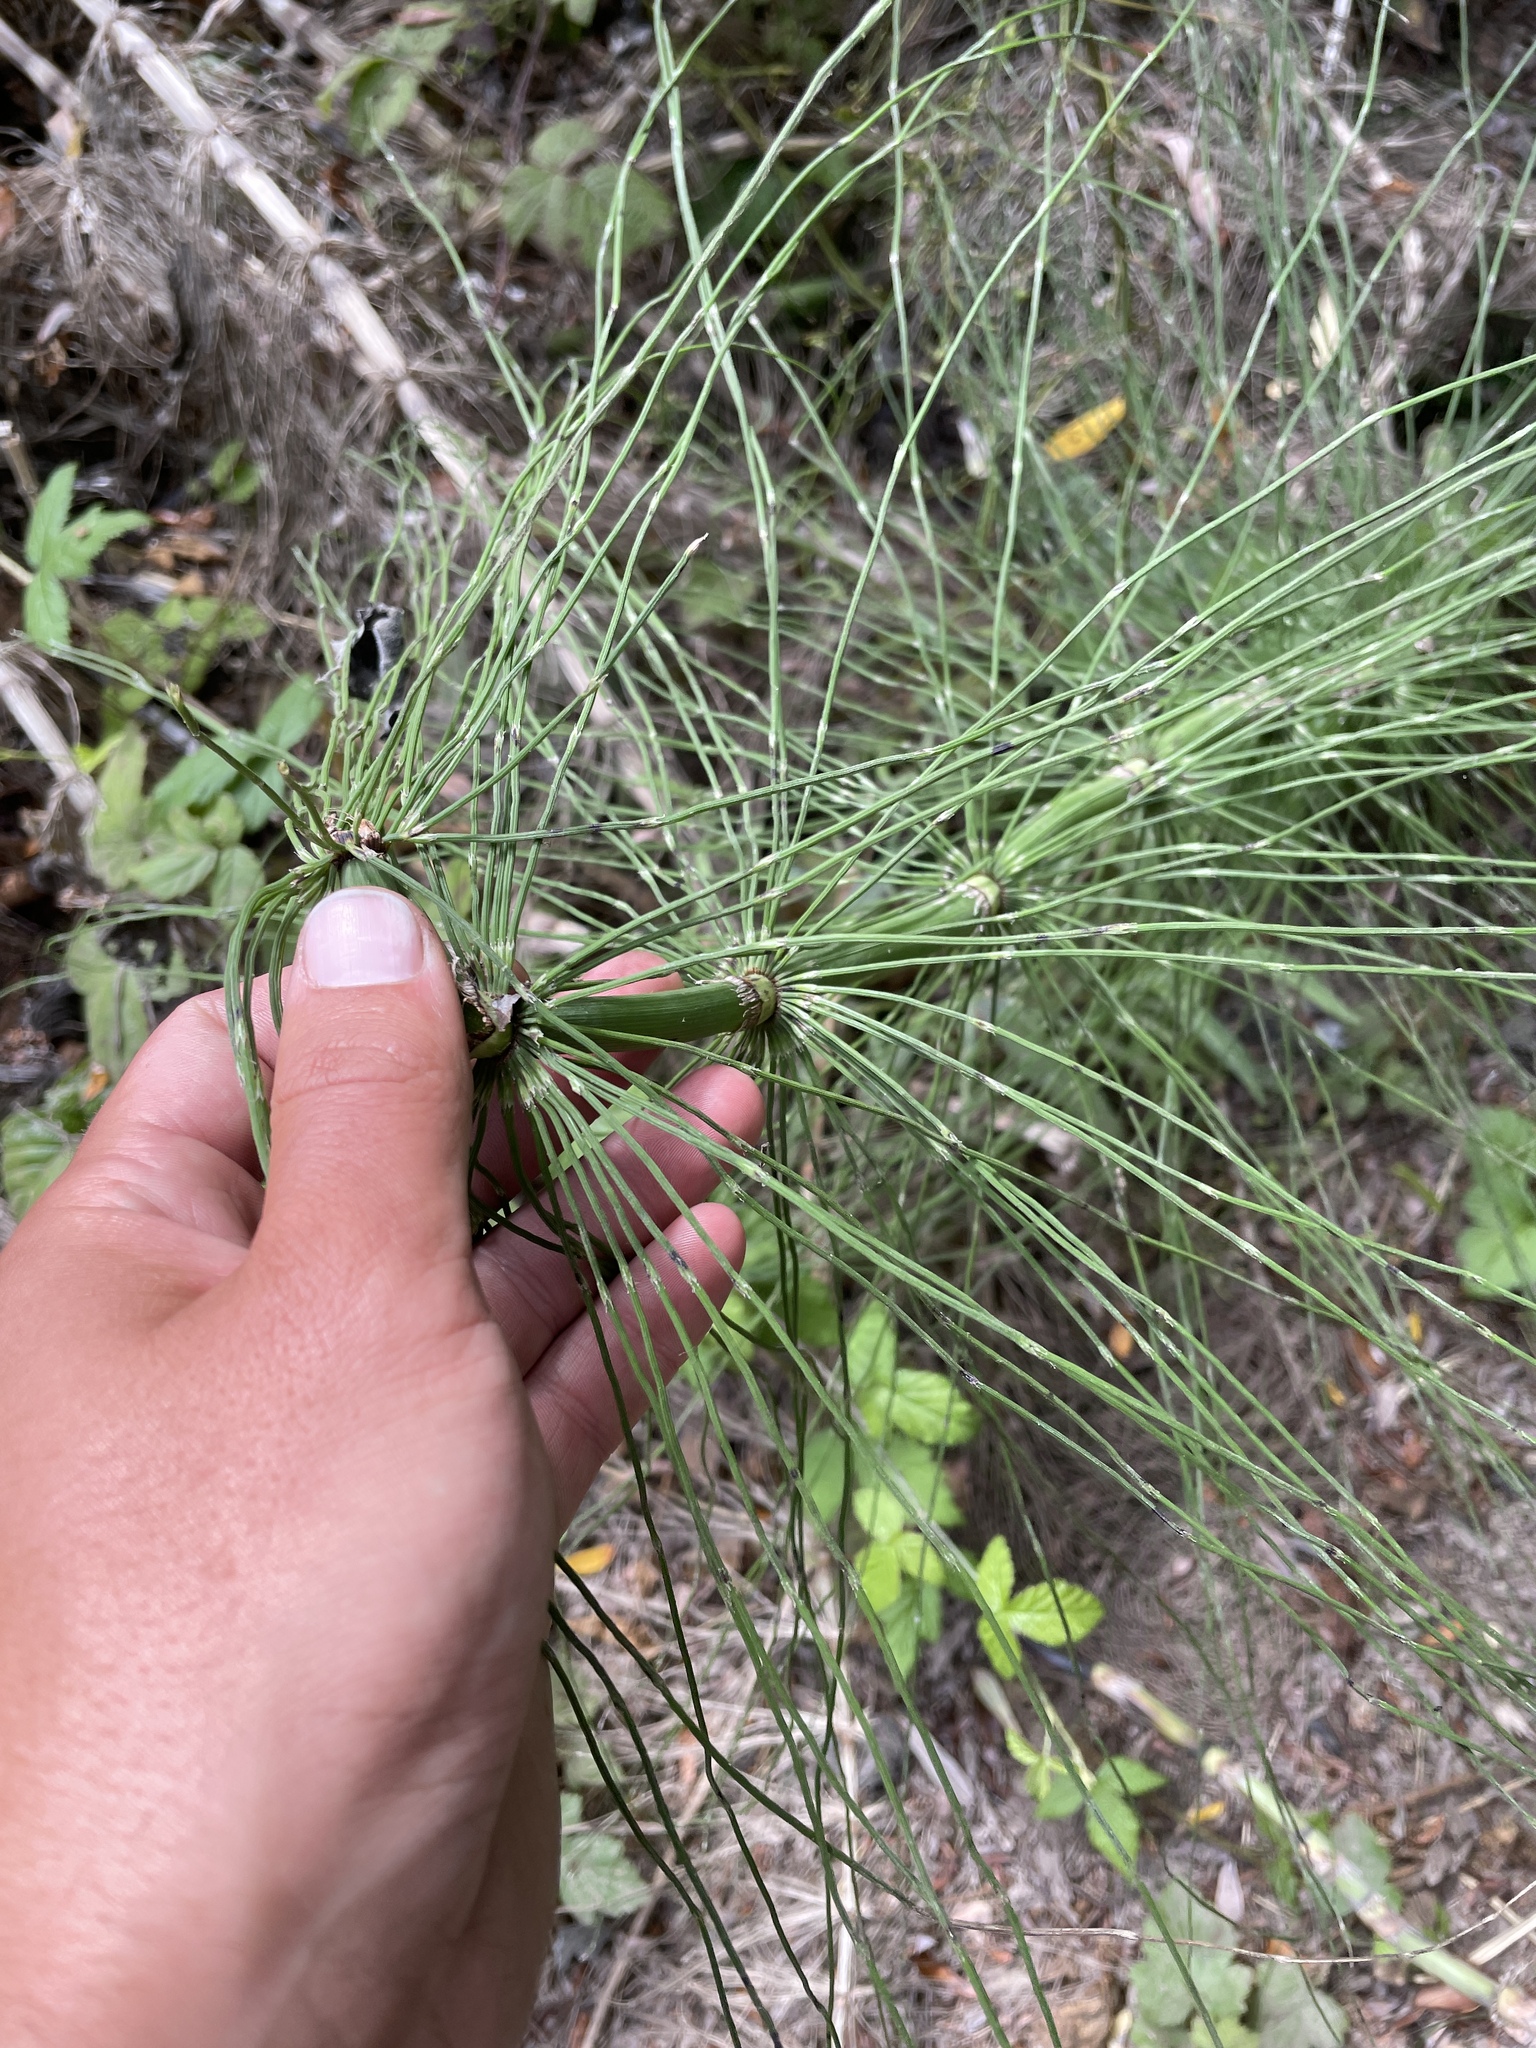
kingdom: Plantae
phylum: Tracheophyta
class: Polypodiopsida
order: Equisetales
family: Equisetaceae
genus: Equisetum
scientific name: Equisetum braunii
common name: Braun's horsetail
